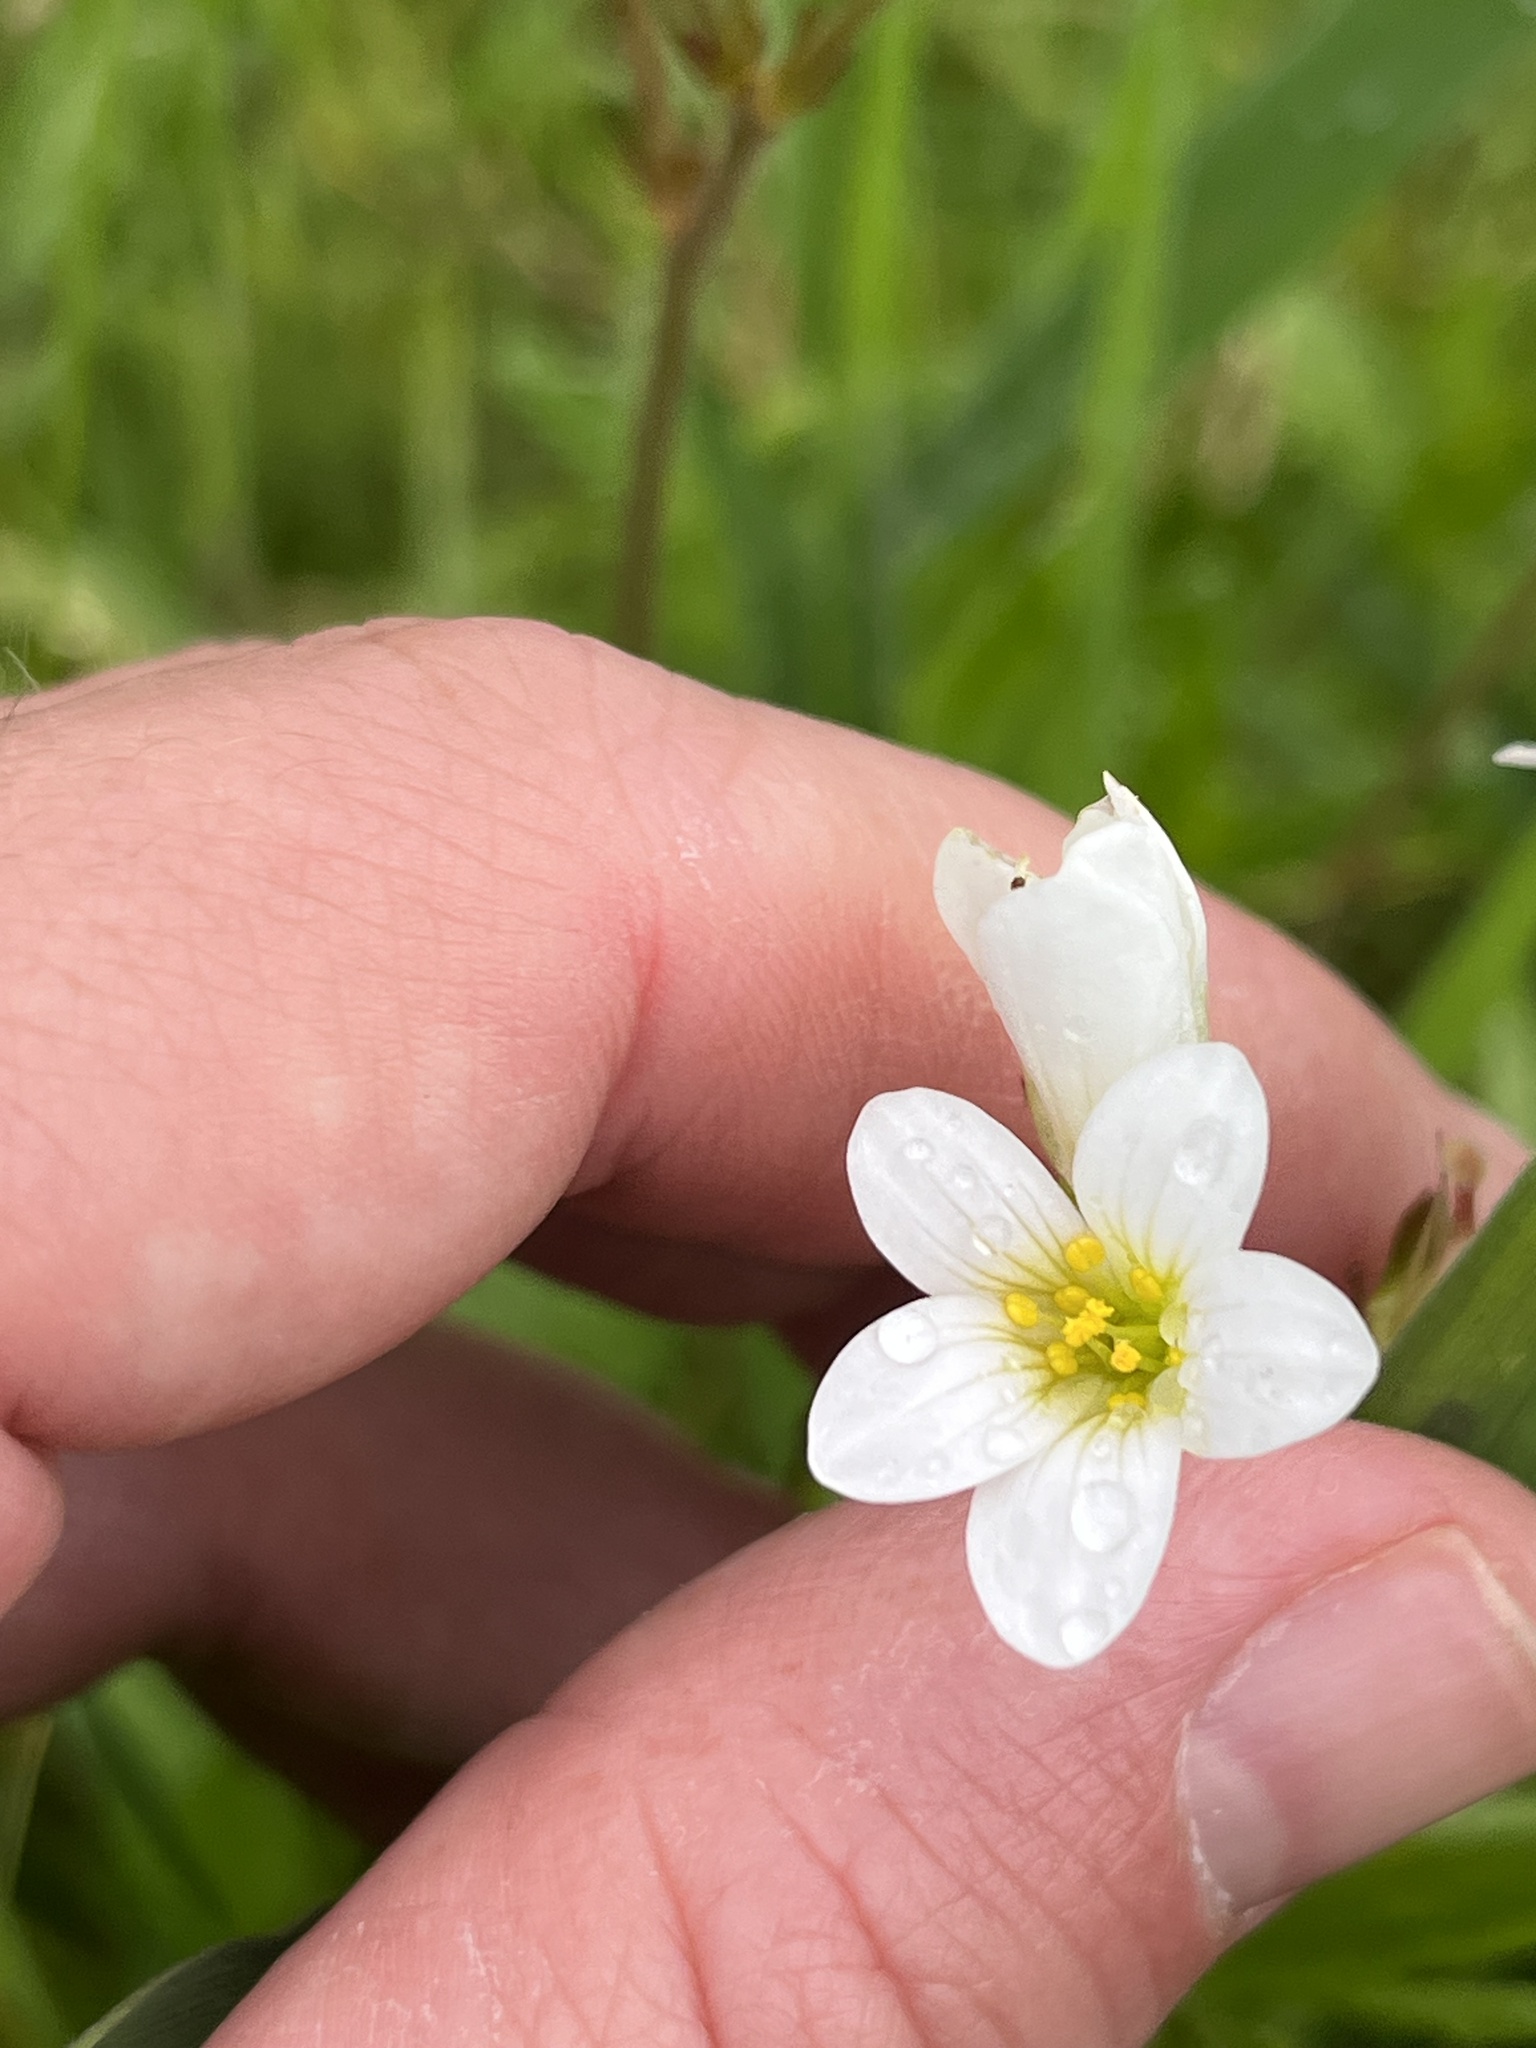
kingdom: Plantae
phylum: Tracheophyta
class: Magnoliopsida
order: Saxifragales
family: Saxifragaceae
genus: Saxifraga
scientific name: Saxifraga granulata
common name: Meadow saxifrage
